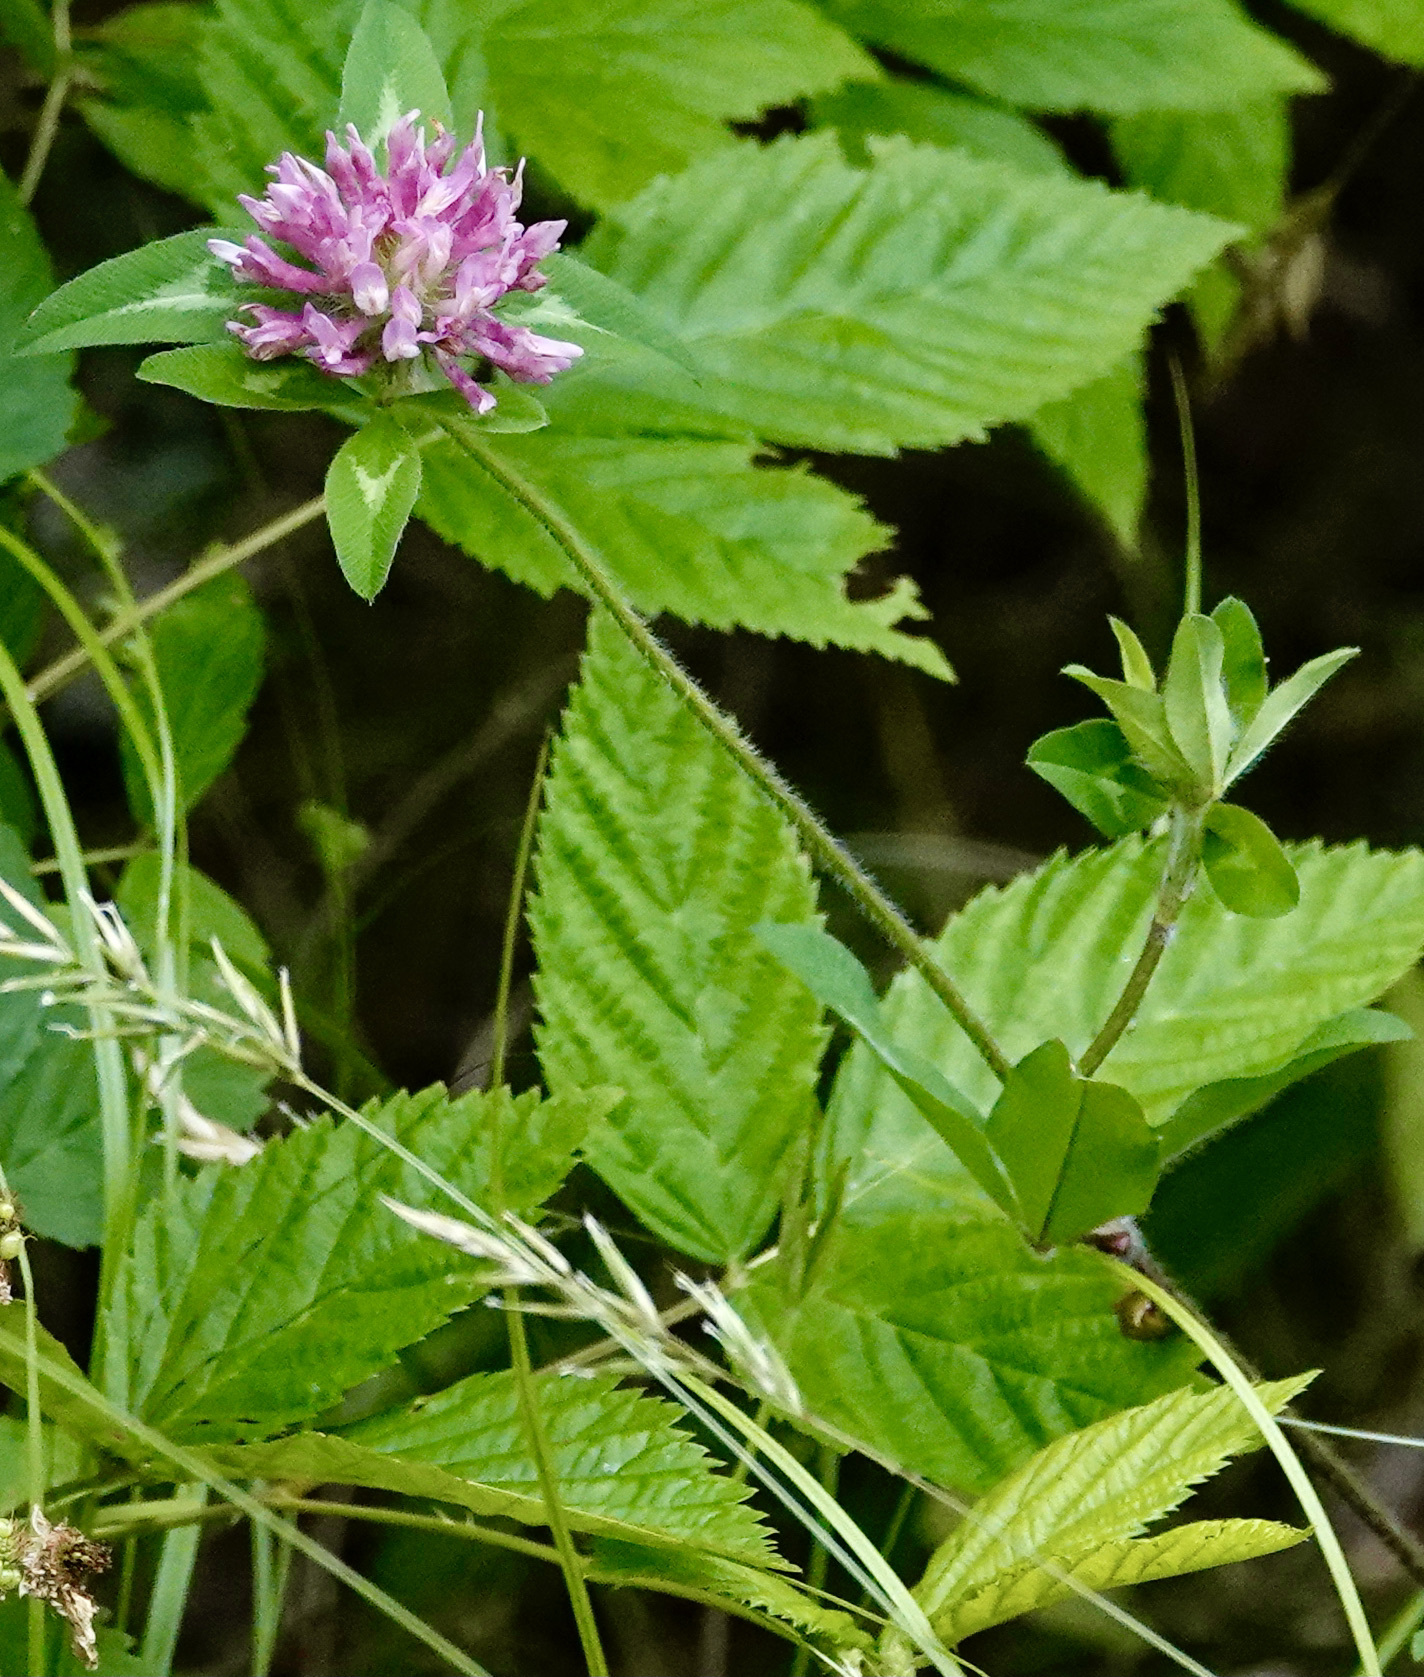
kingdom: Plantae
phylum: Tracheophyta
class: Magnoliopsida
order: Fabales
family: Fabaceae
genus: Trifolium
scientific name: Trifolium pratense
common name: Red clover
